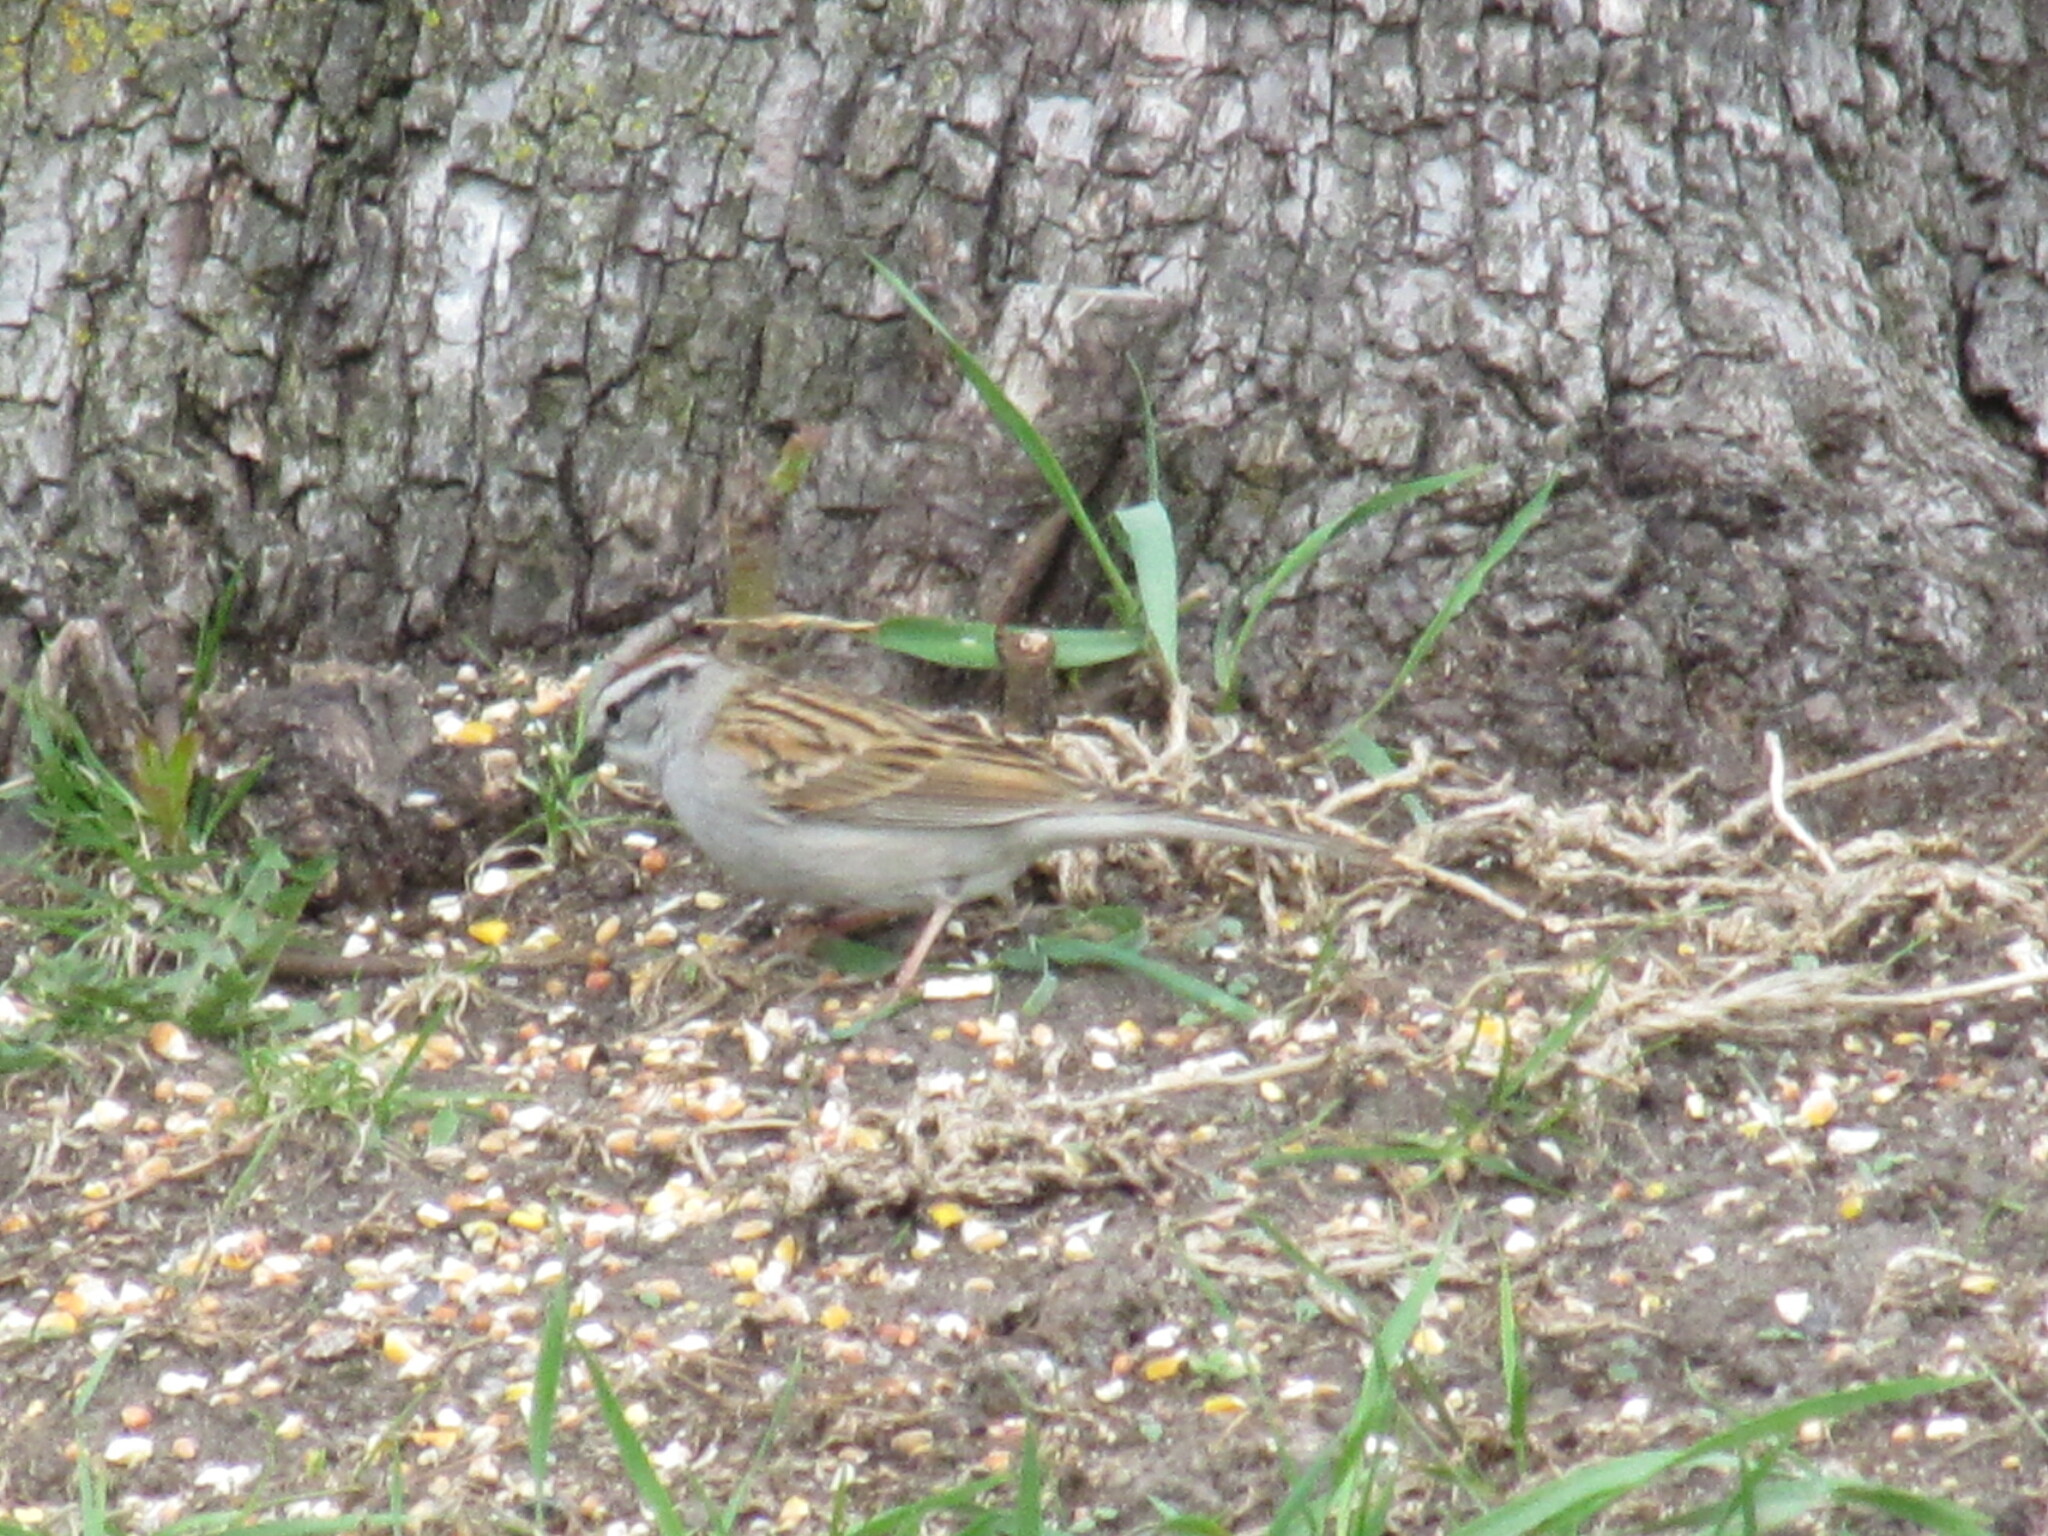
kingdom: Animalia
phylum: Chordata
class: Aves
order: Passeriformes
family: Passerellidae
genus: Spizella
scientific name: Spizella passerina
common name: Chipping sparrow
